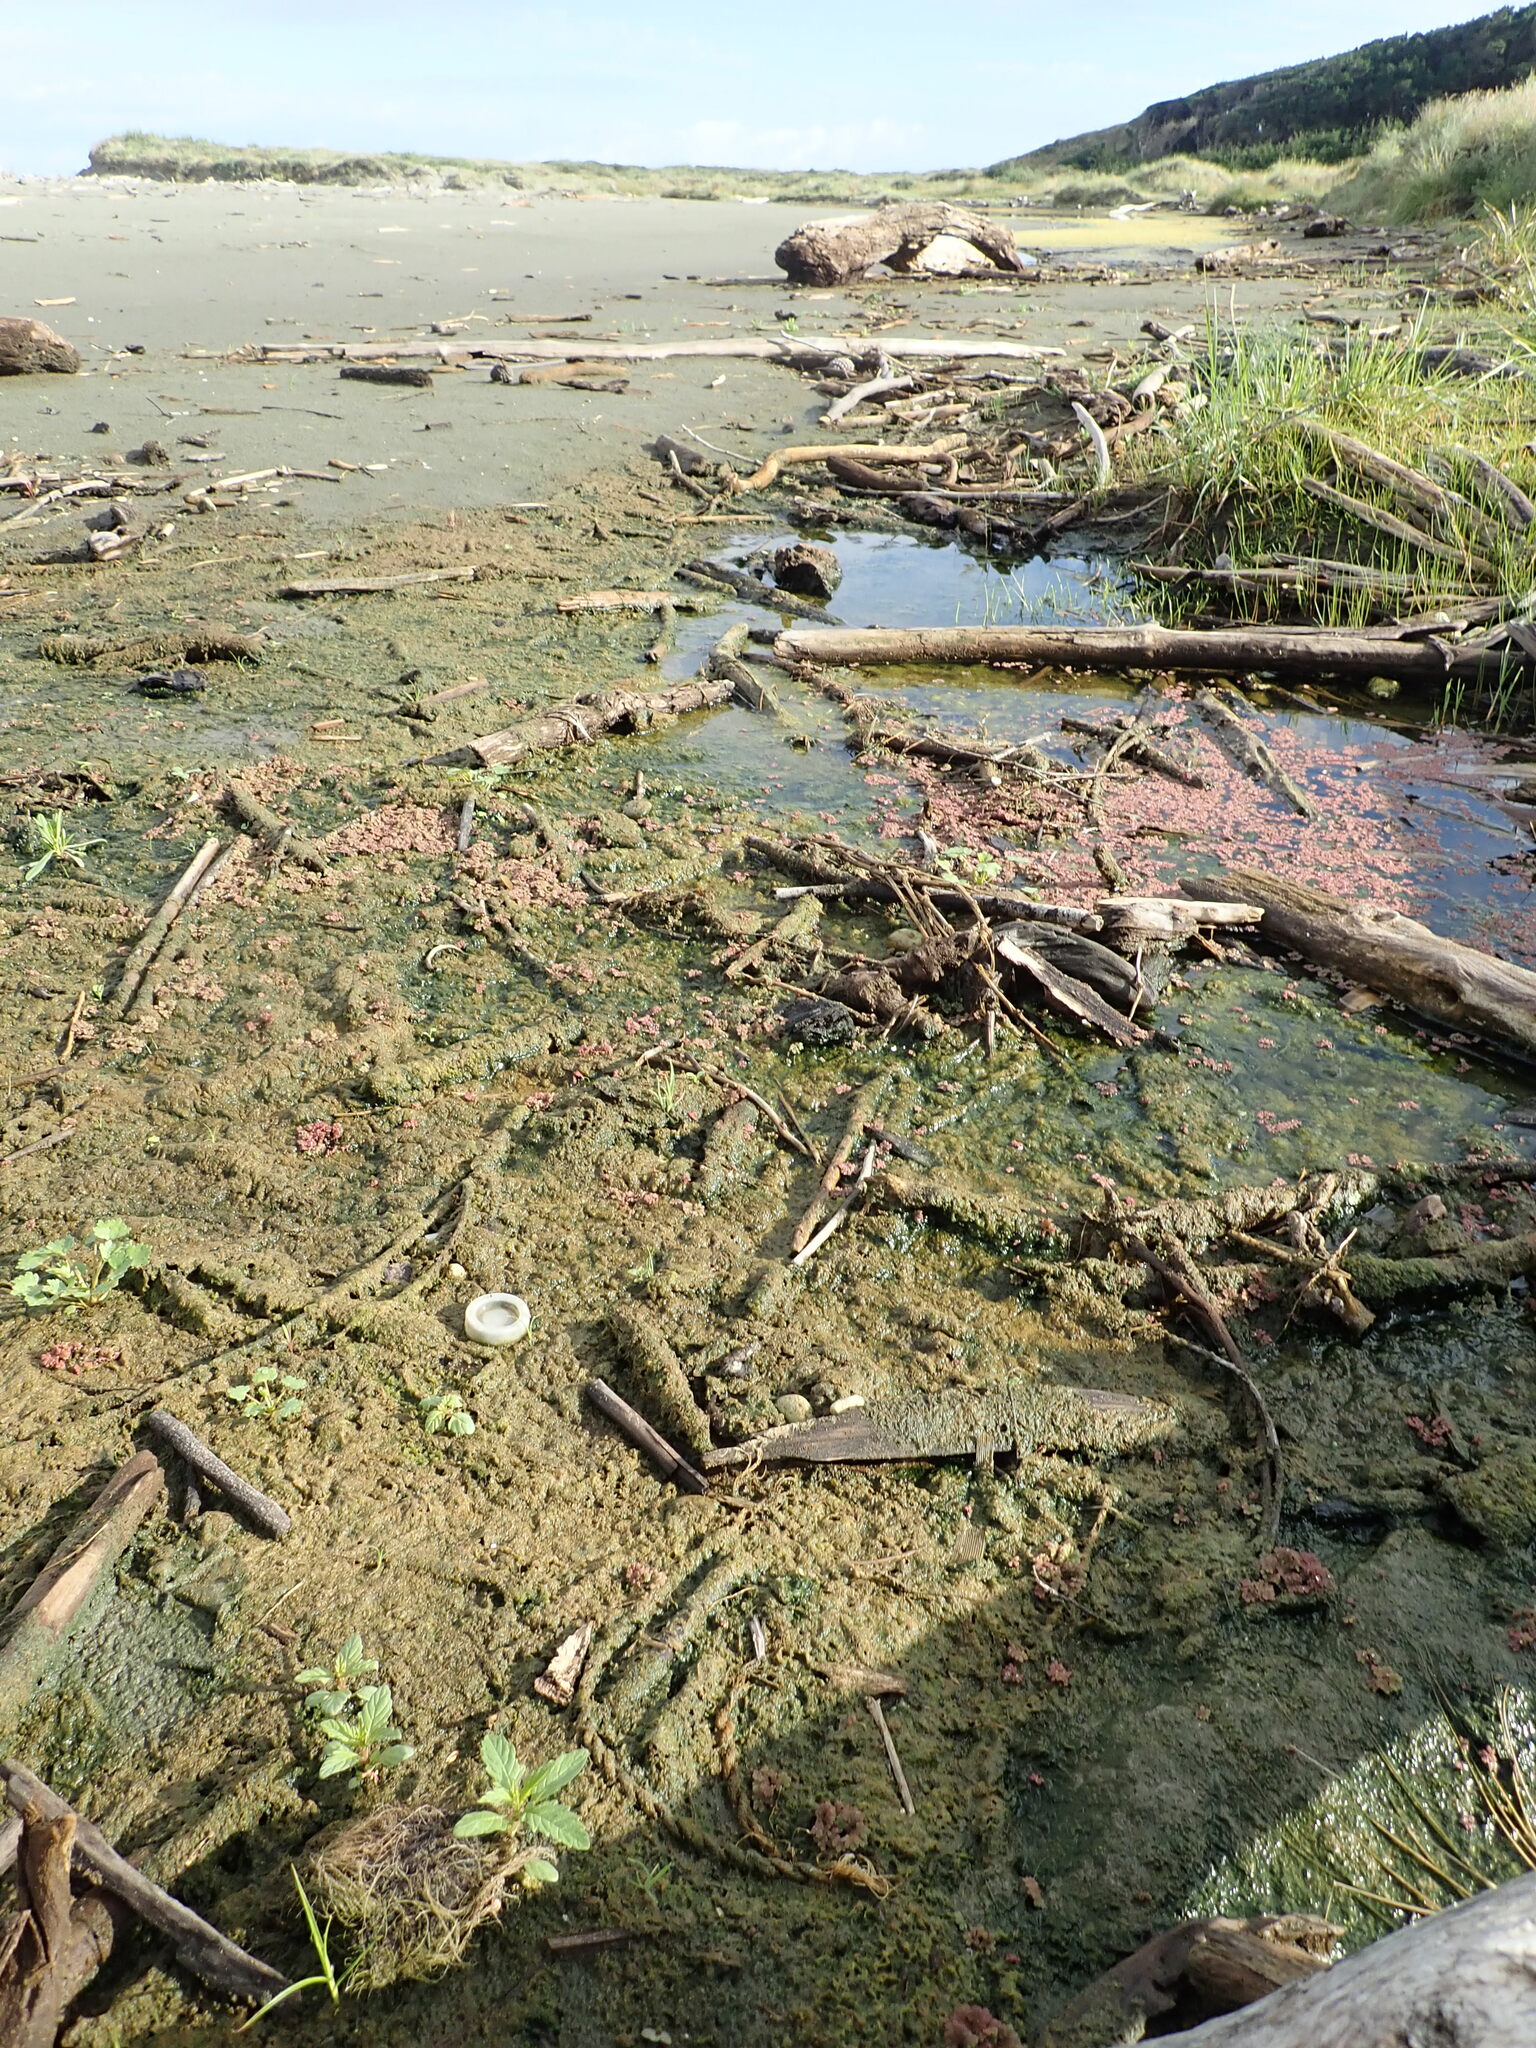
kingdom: Plantae
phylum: Tracheophyta
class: Polypodiopsida
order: Salviniales
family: Salviniaceae
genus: Azolla
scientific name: Azolla rubra
